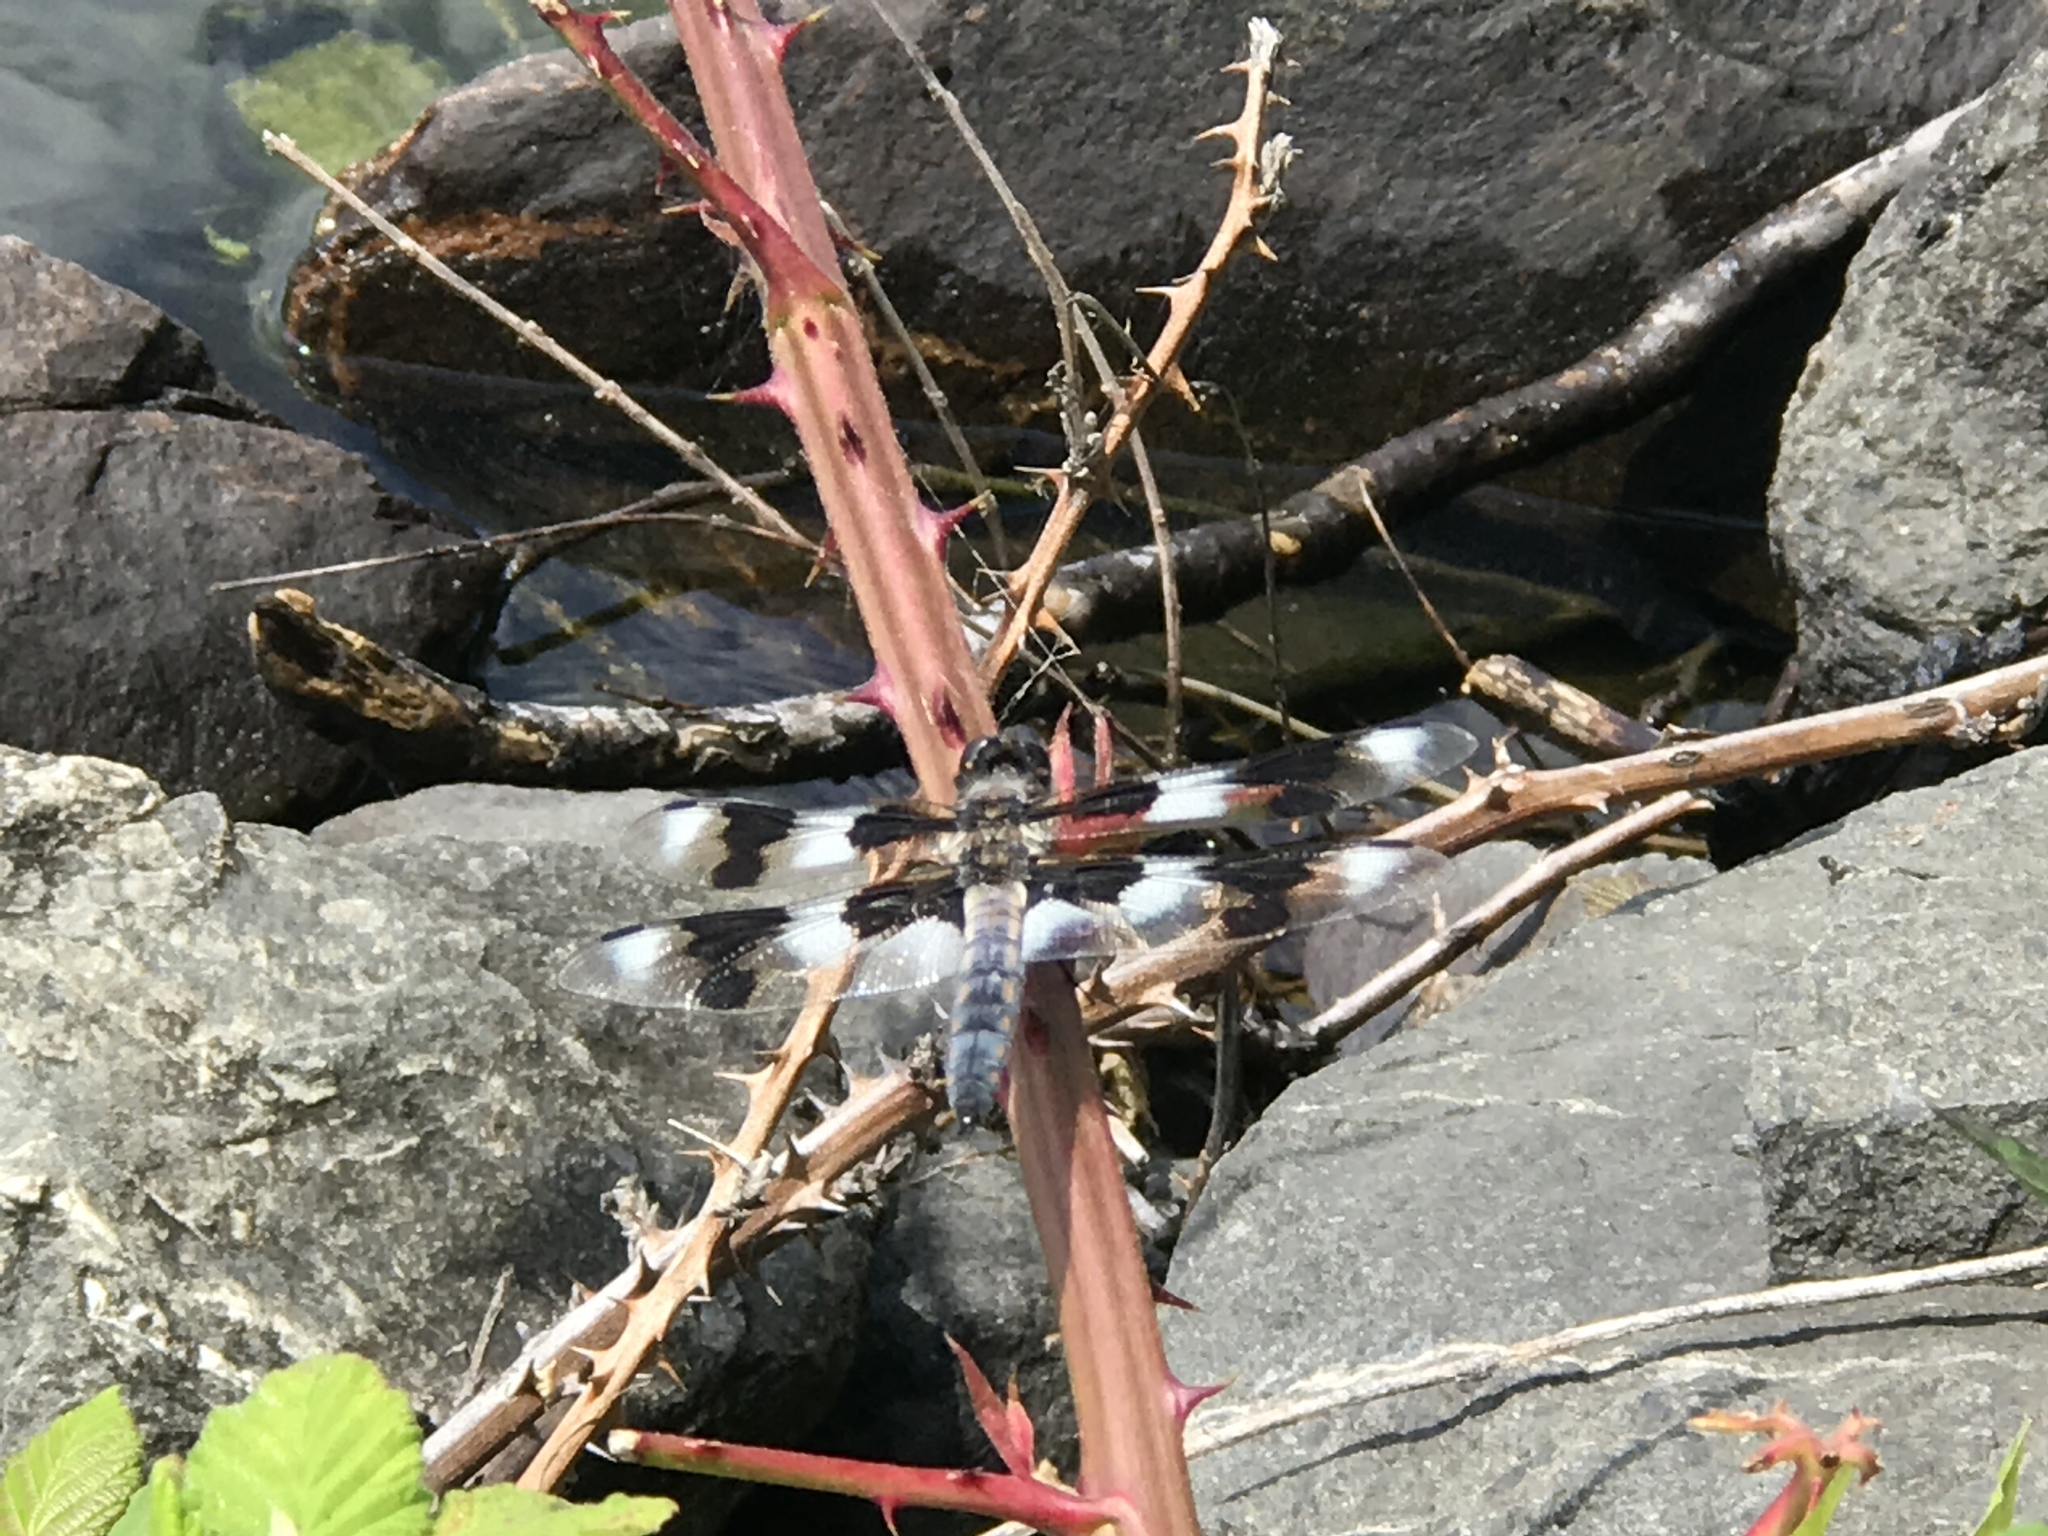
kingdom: Animalia
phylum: Arthropoda
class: Insecta
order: Odonata
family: Libellulidae
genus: Libellula
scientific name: Libellula forensis
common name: Eight-spotted skimmer
